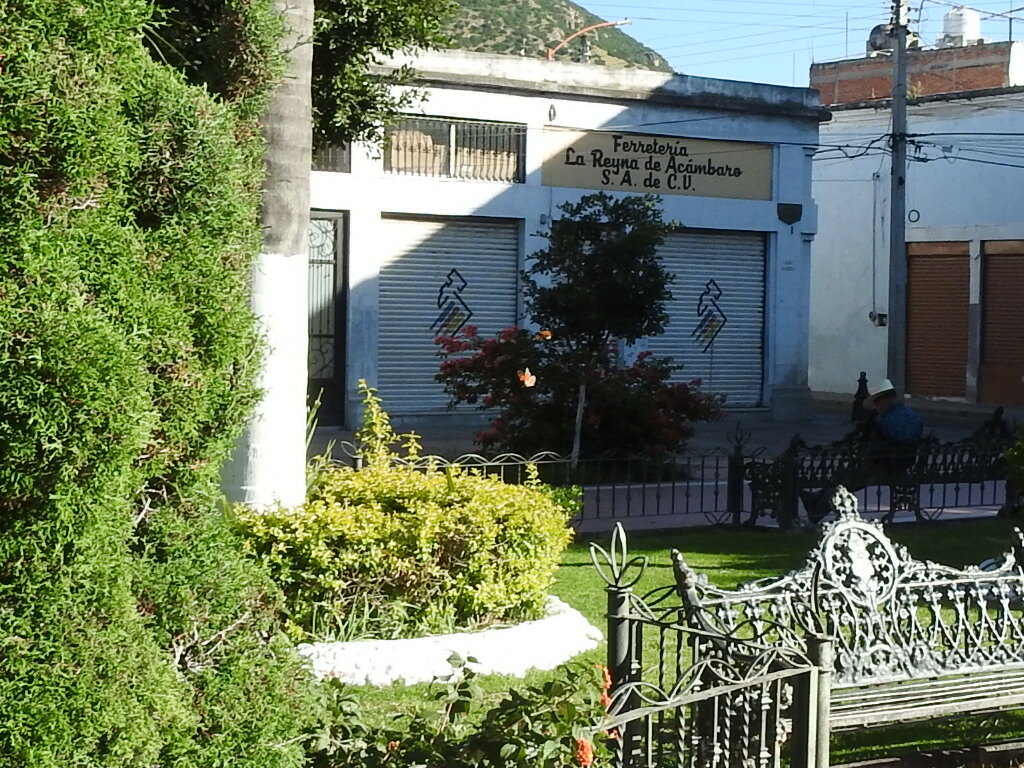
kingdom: Animalia
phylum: Arthropoda
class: Insecta
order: Lepidoptera
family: Nymphalidae
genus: Danaus
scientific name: Danaus plexippus
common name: Monarch
